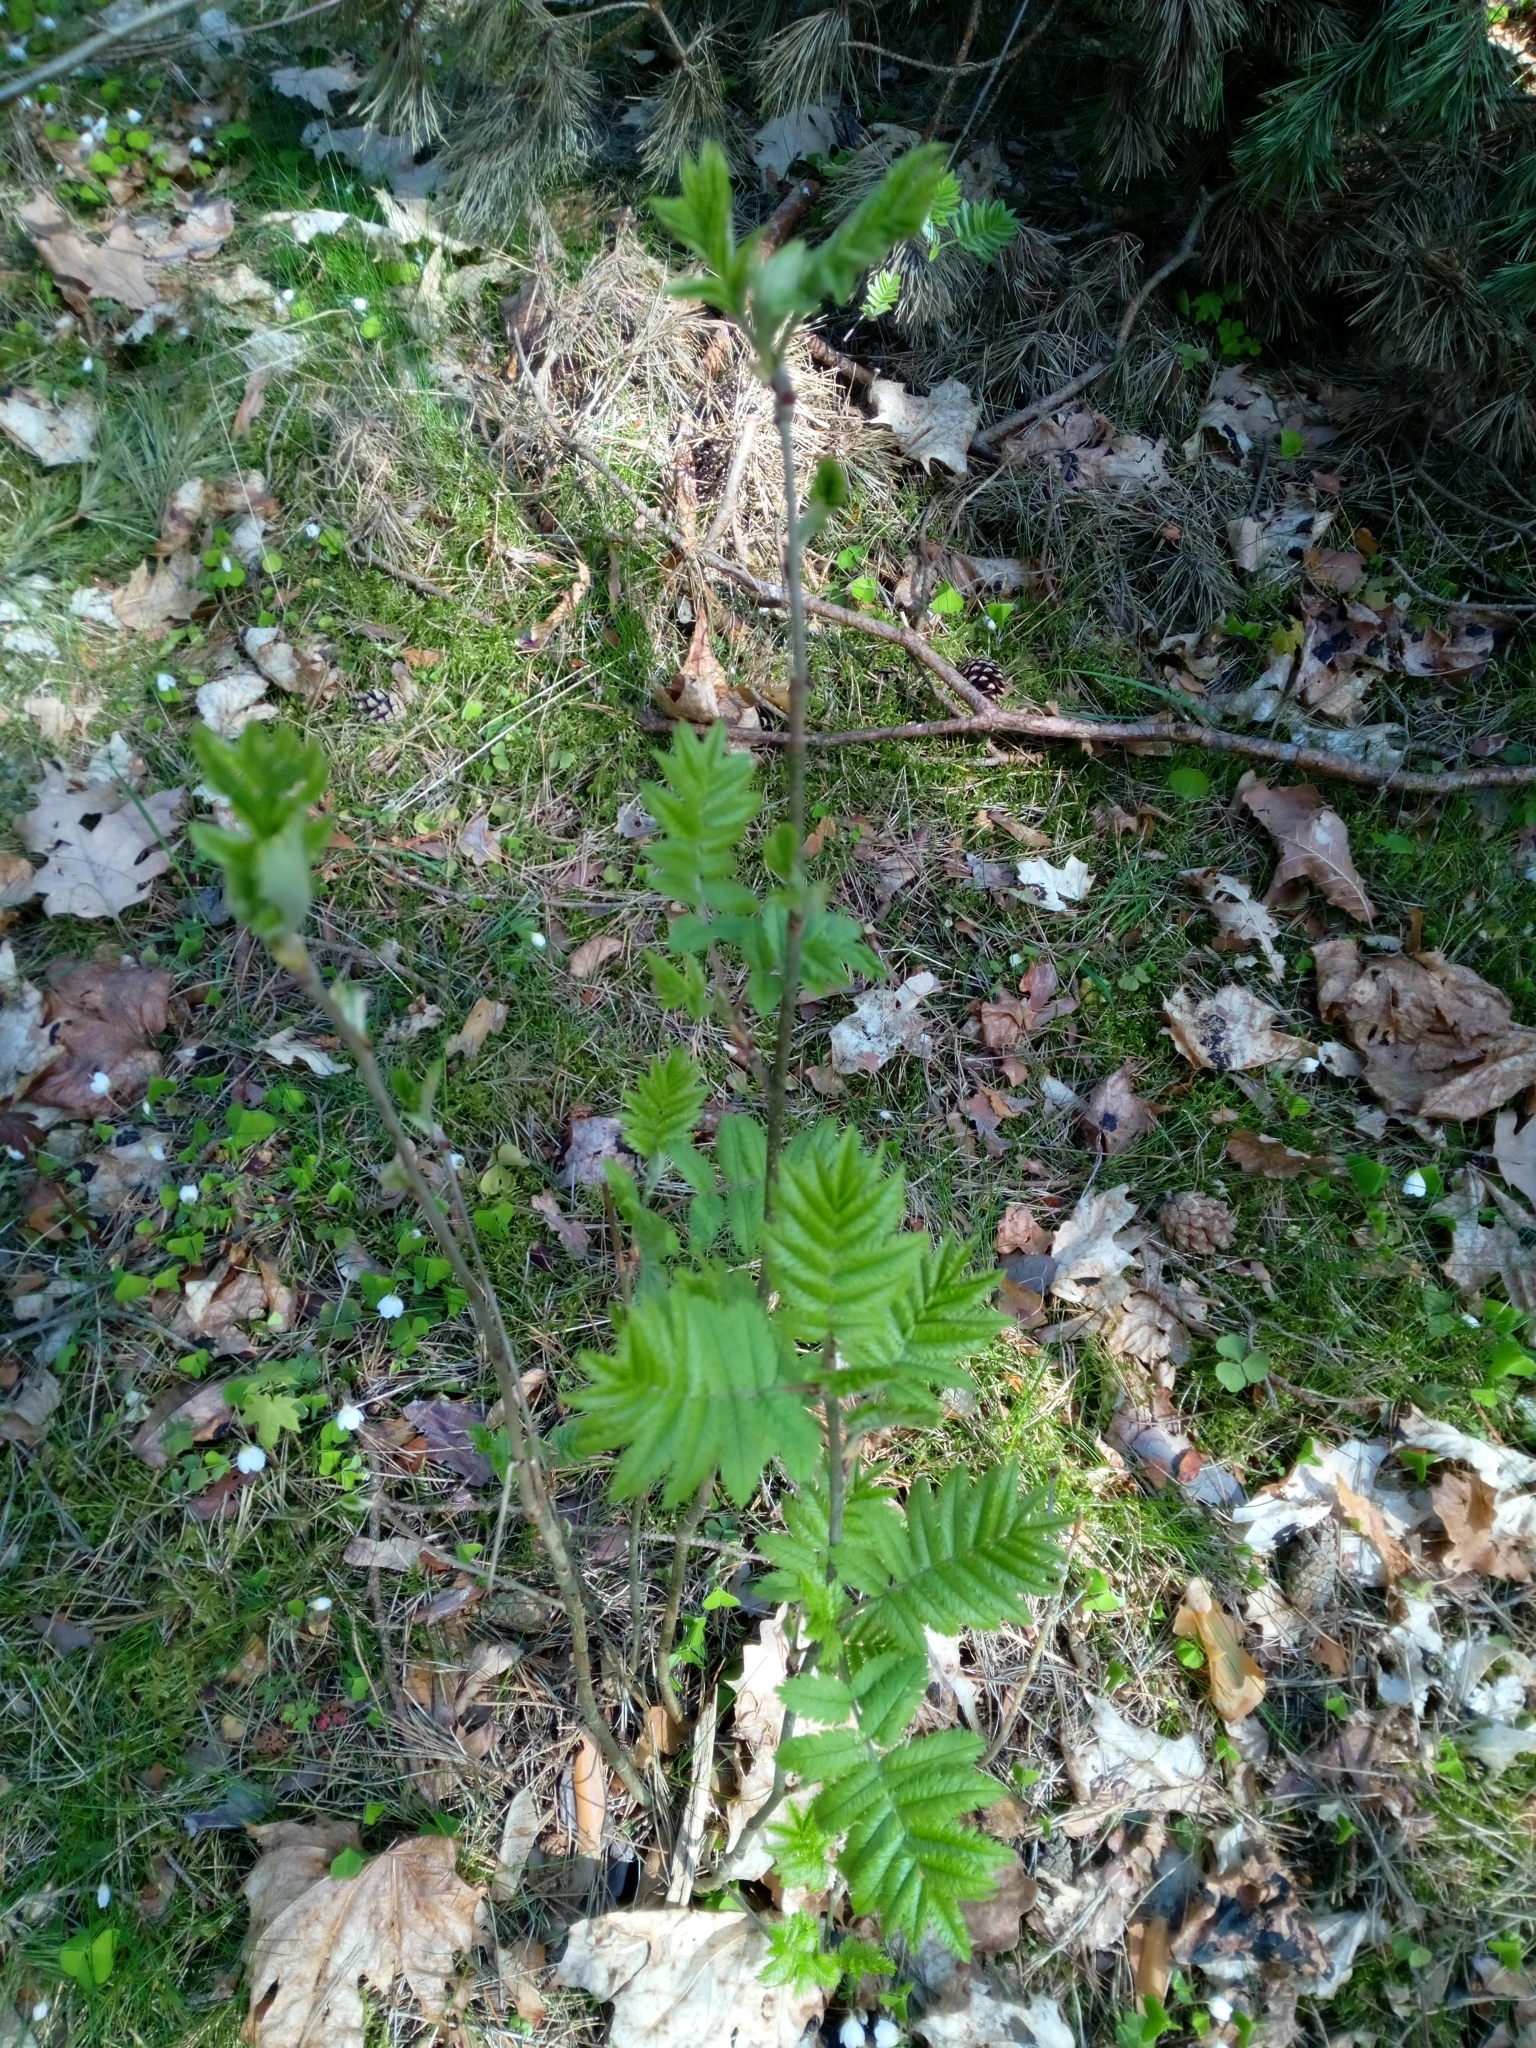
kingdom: Plantae
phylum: Tracheophyta
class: Magnoliopsida
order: Rosales
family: Rosaceae
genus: Sorbus
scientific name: Sorbus aucuparia
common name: Rowan
